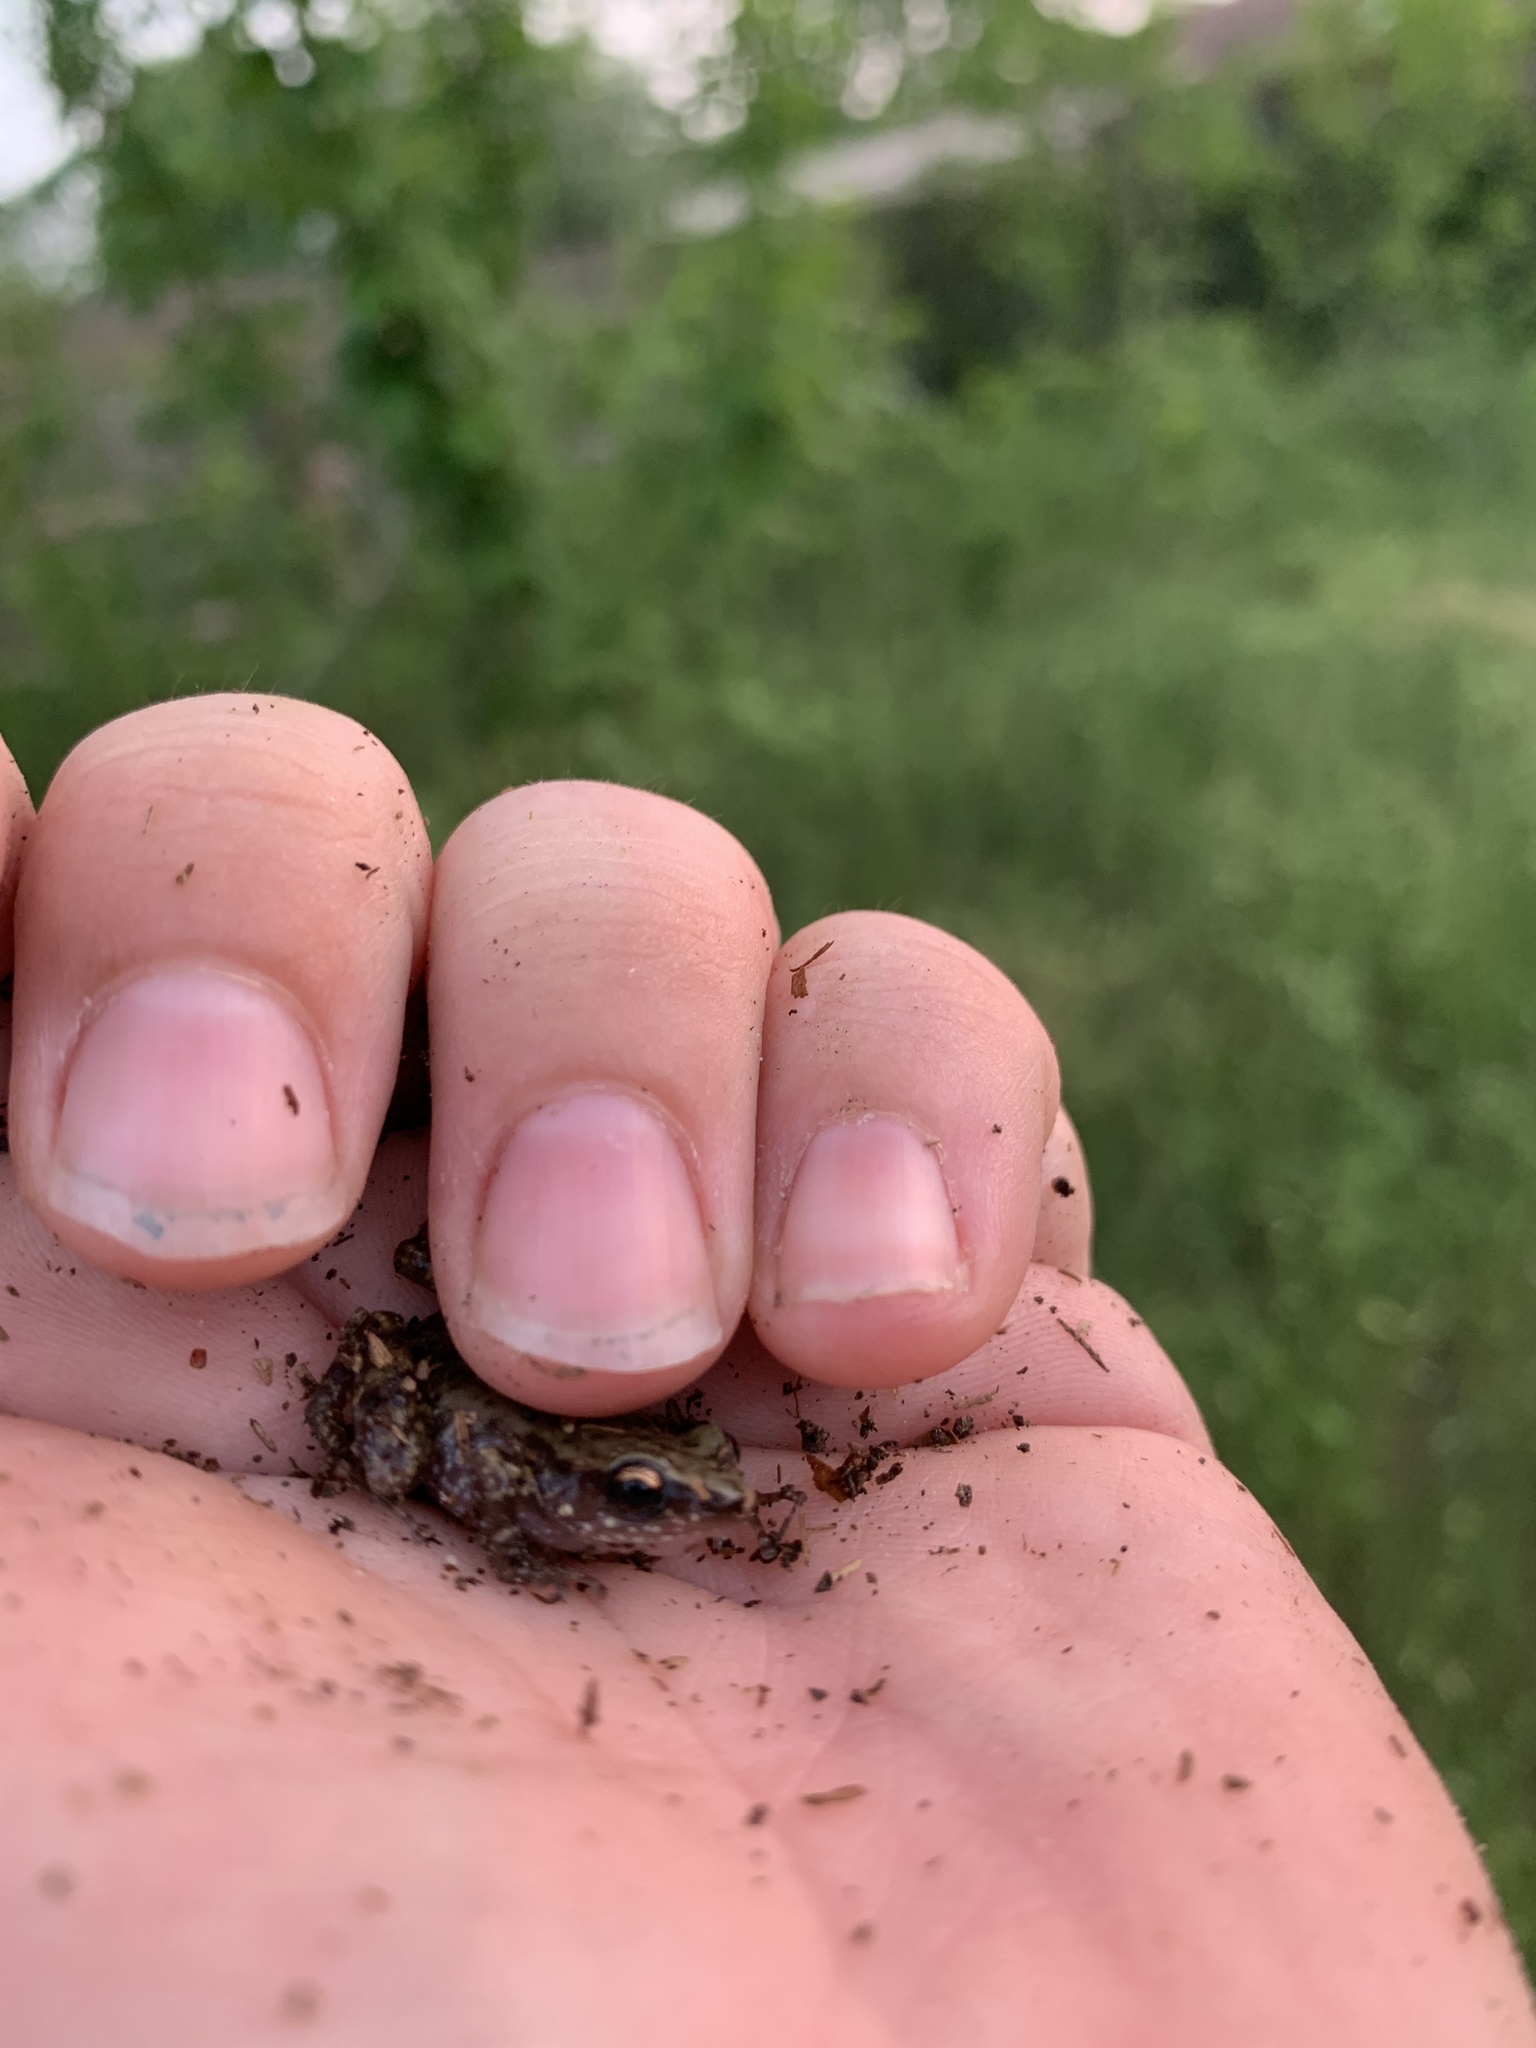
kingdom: Animalia
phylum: Chordata
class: Amphibia
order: Anura
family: Eleutherodactylidae
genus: Eleutherodactylus
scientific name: Eleutherodactylus campi
